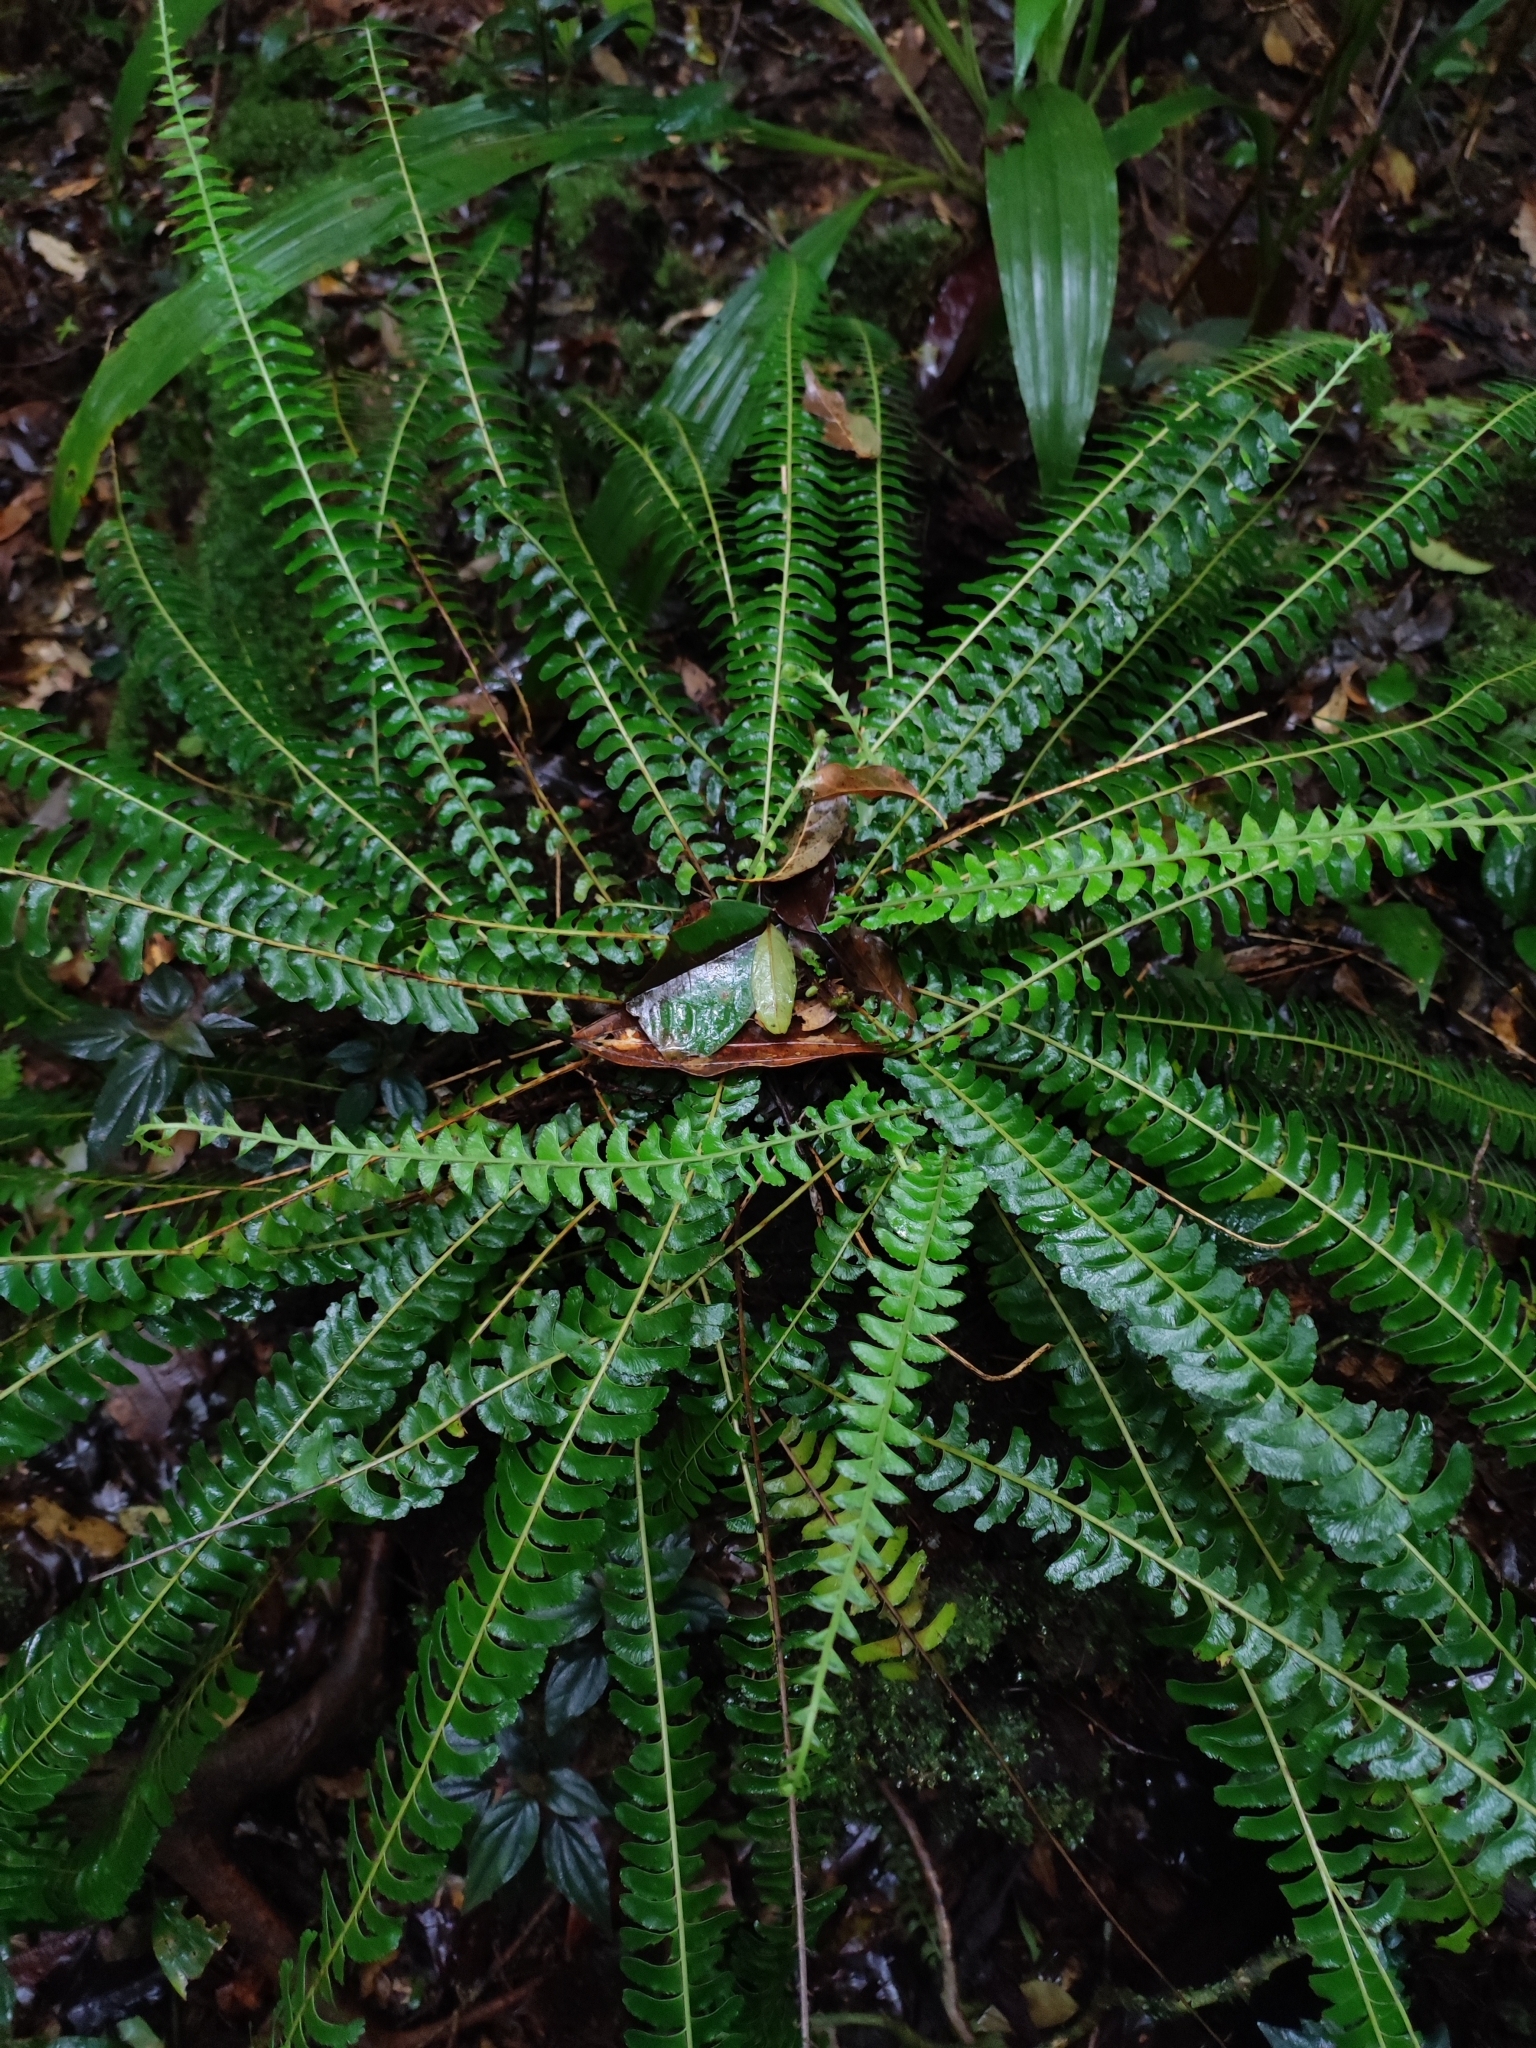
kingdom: Plantae
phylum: Tracheophyta
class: Polypodiopsida
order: Polypodiales
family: Lindsaeaceae
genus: Lindsaea
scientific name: Lindsaea pectinata
